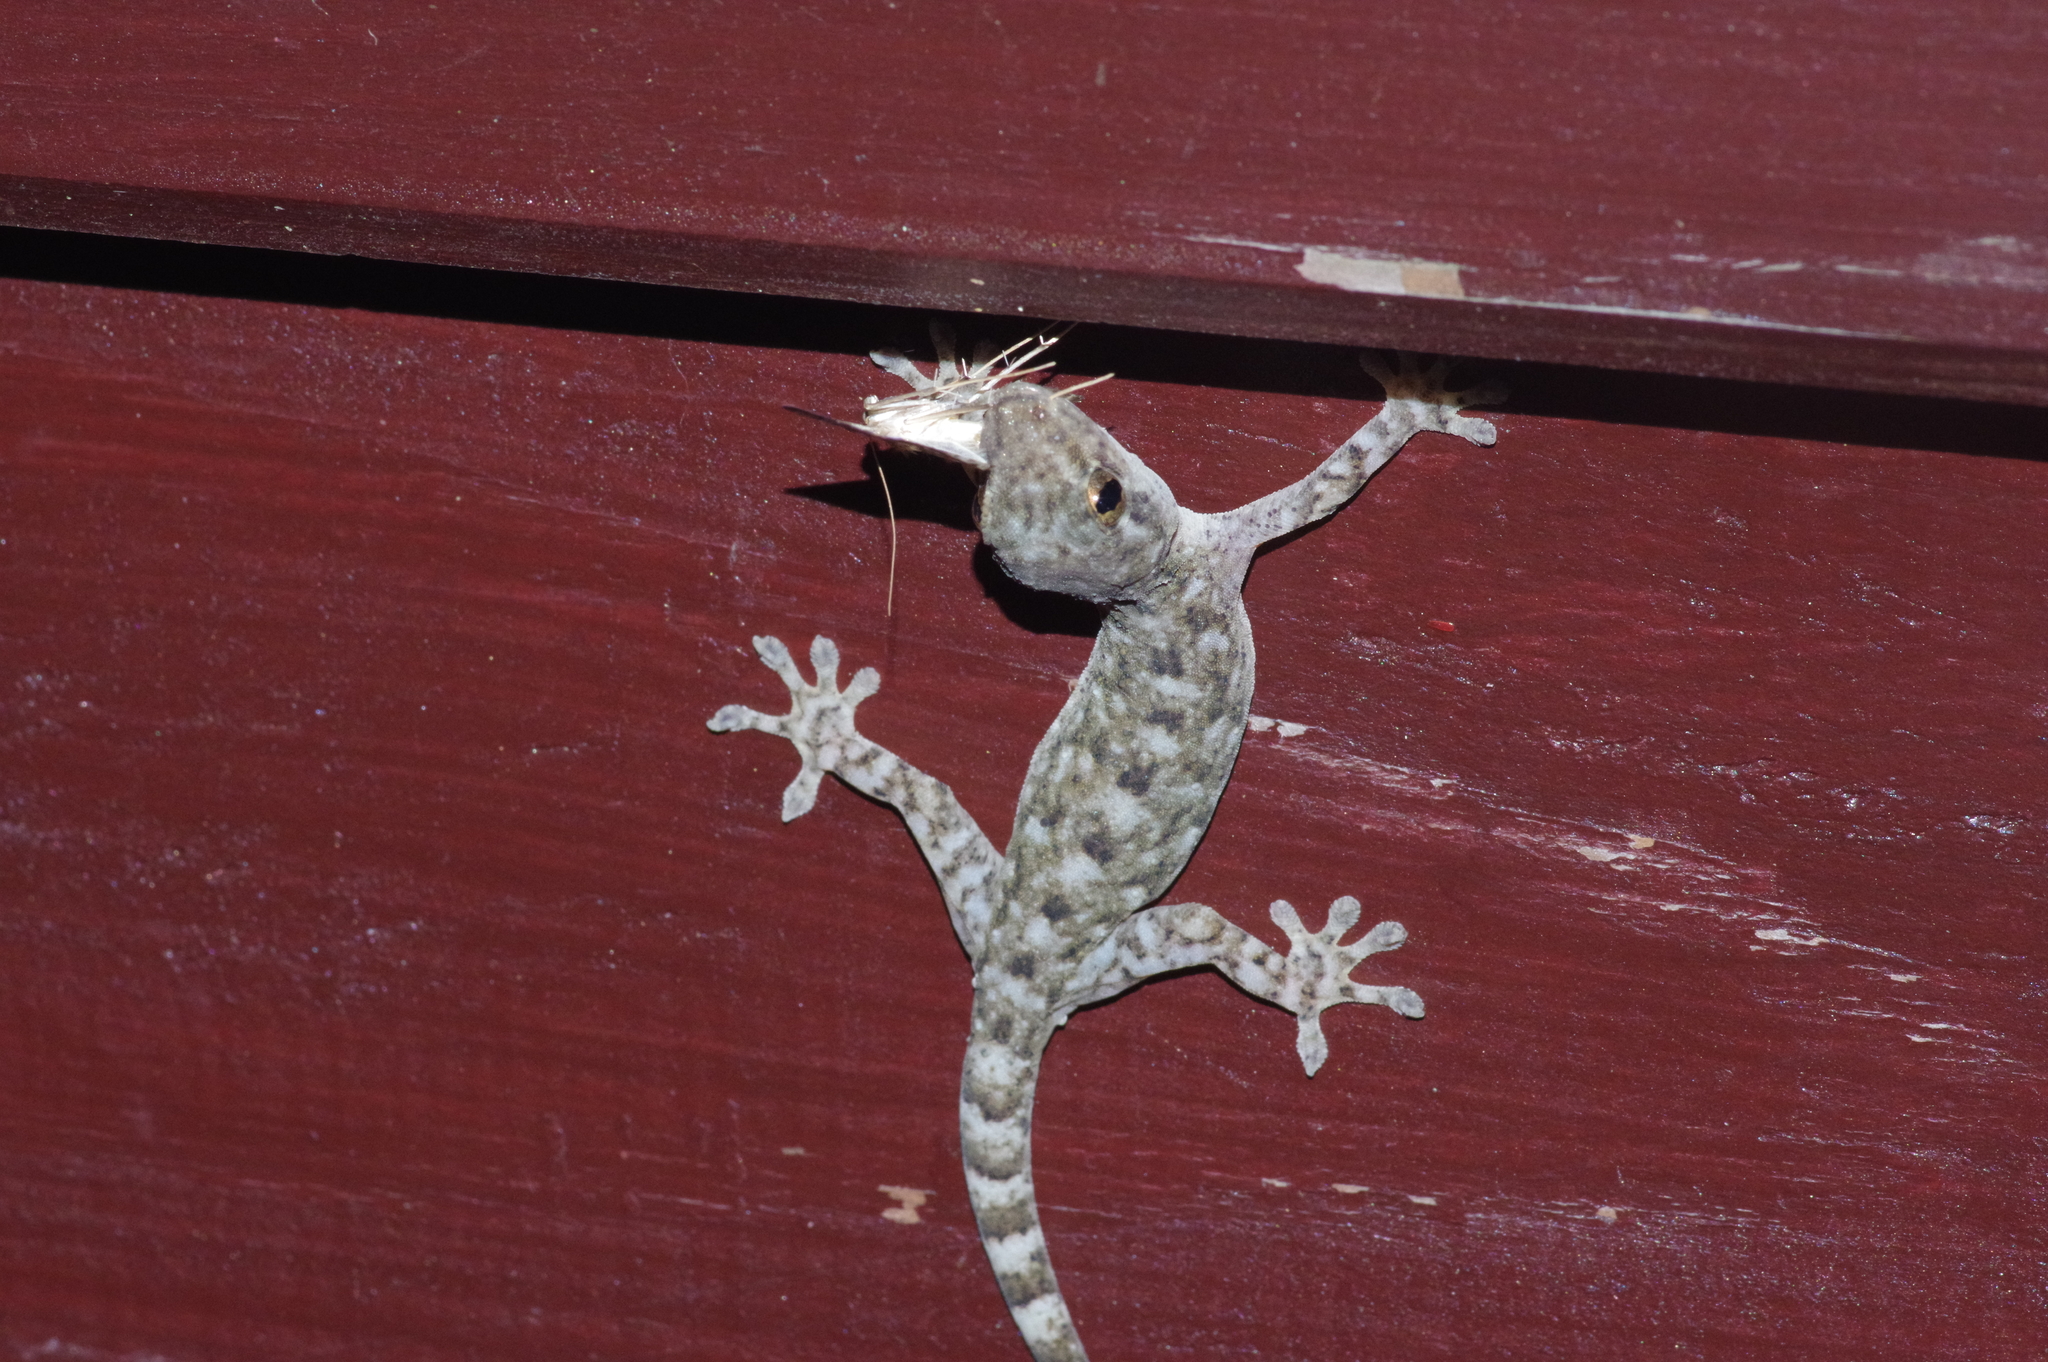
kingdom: Animalia
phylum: Chordata
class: Squamata
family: Gekkonidae
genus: Gekko
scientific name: Gekko hokouensis
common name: Kwangsi gecko
